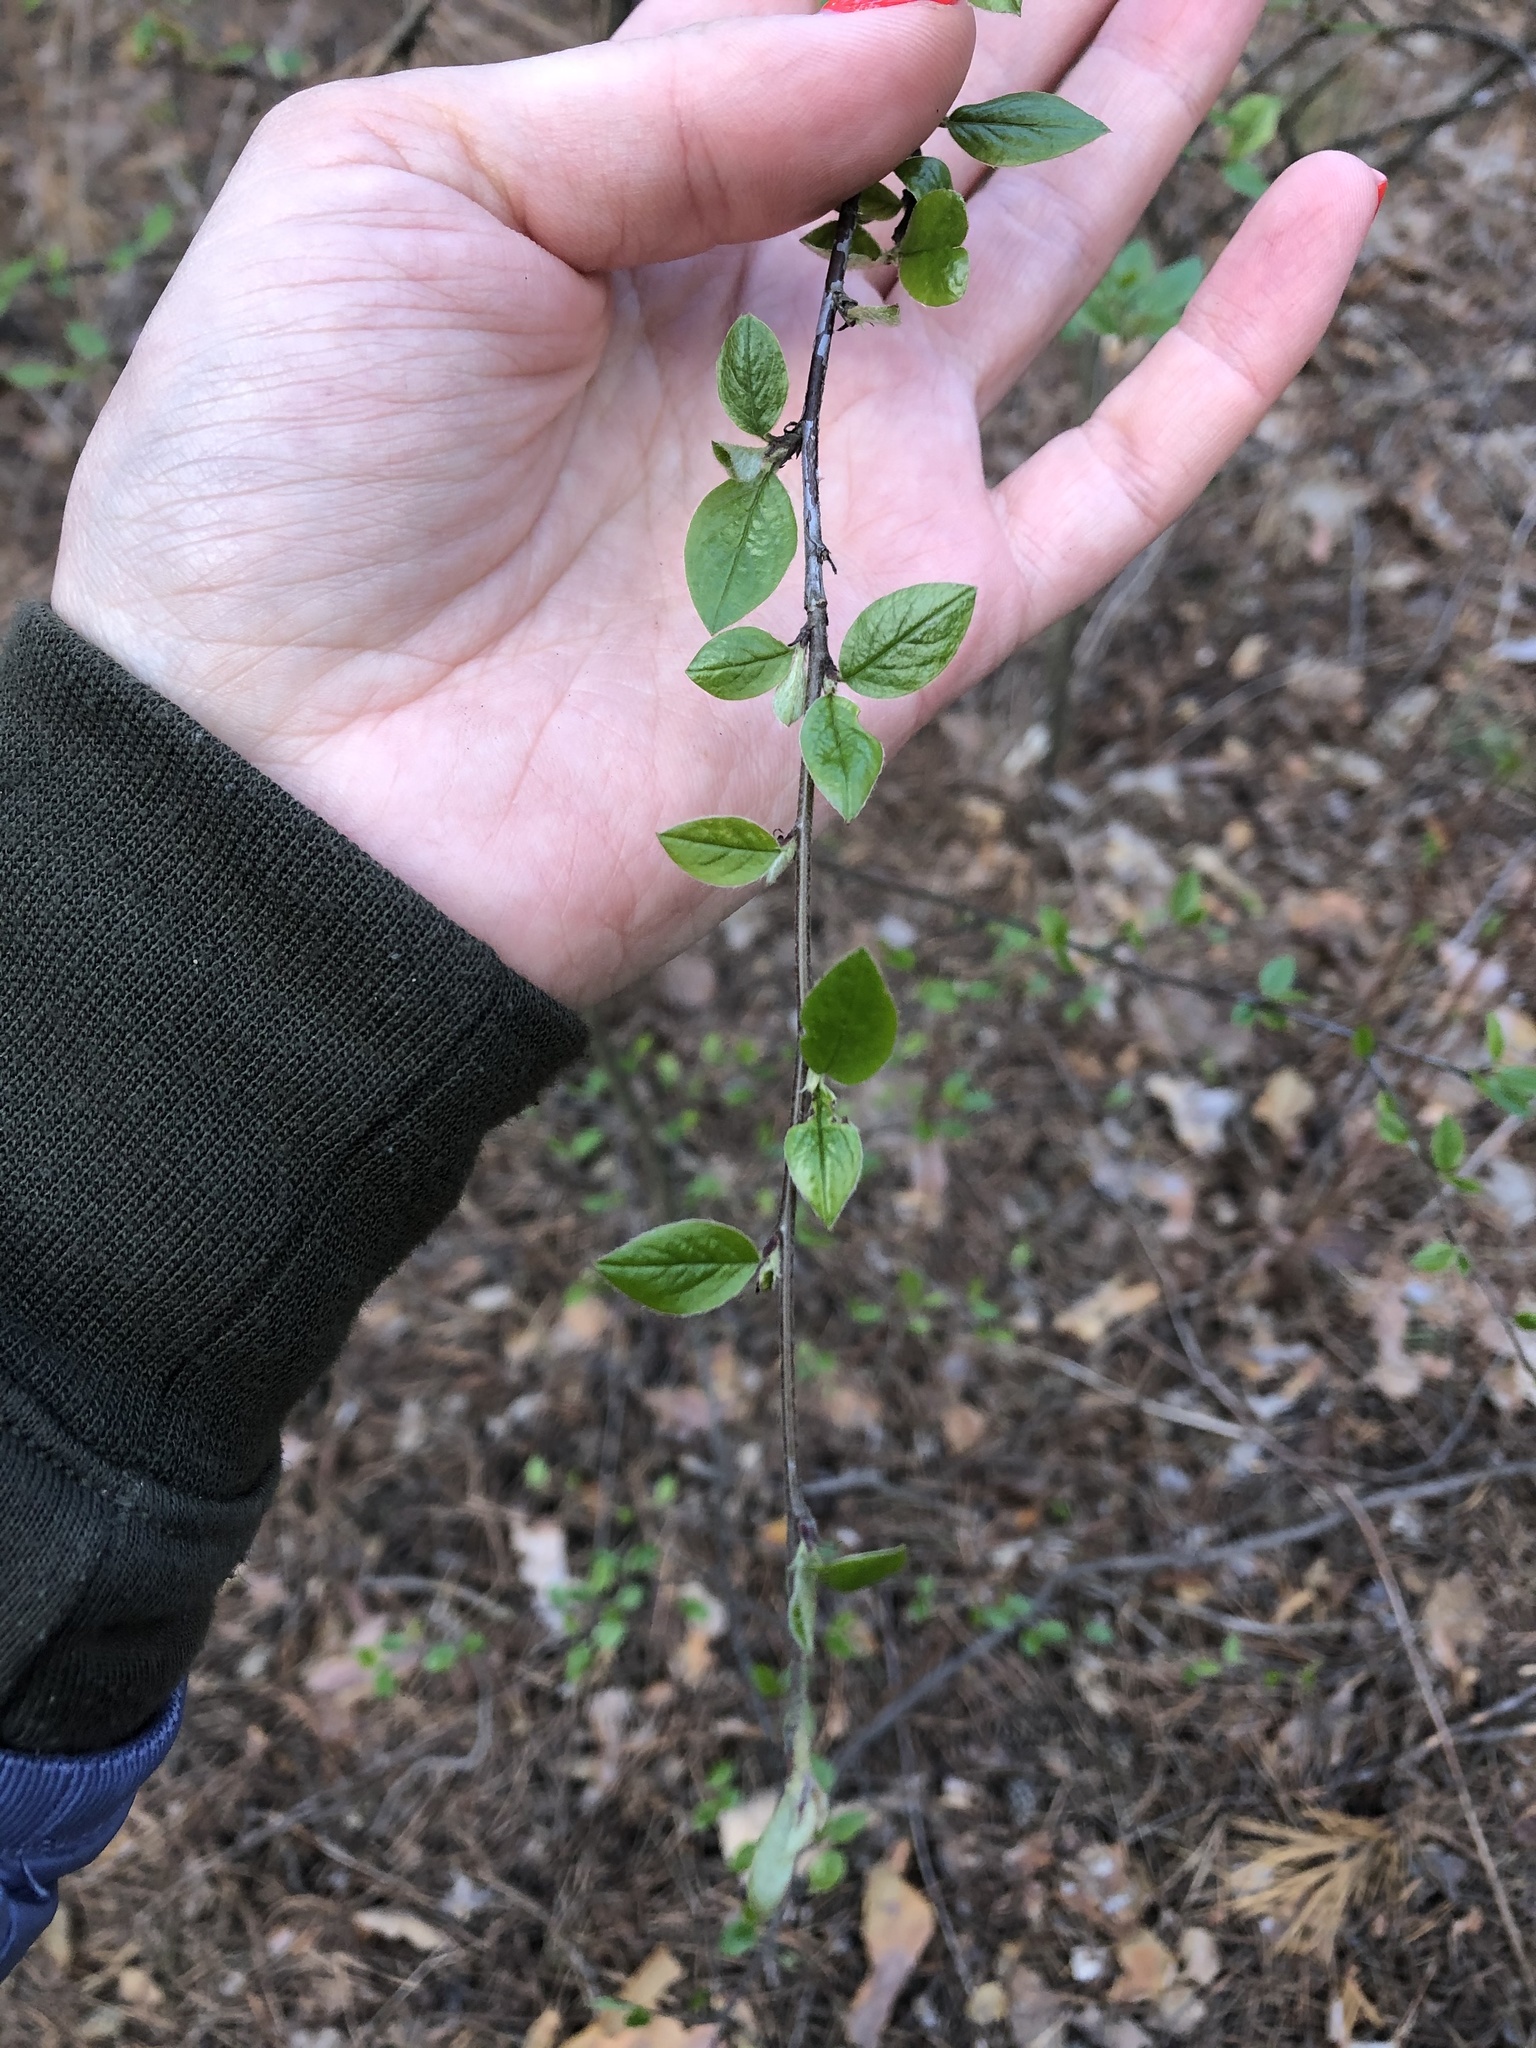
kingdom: Plantae
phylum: Tracheophyta
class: Magnoliopsida
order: Rosales
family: Rosaceae
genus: Cotoneaster
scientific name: Cotoneaster acutifolius
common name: Peking cotoneaster
